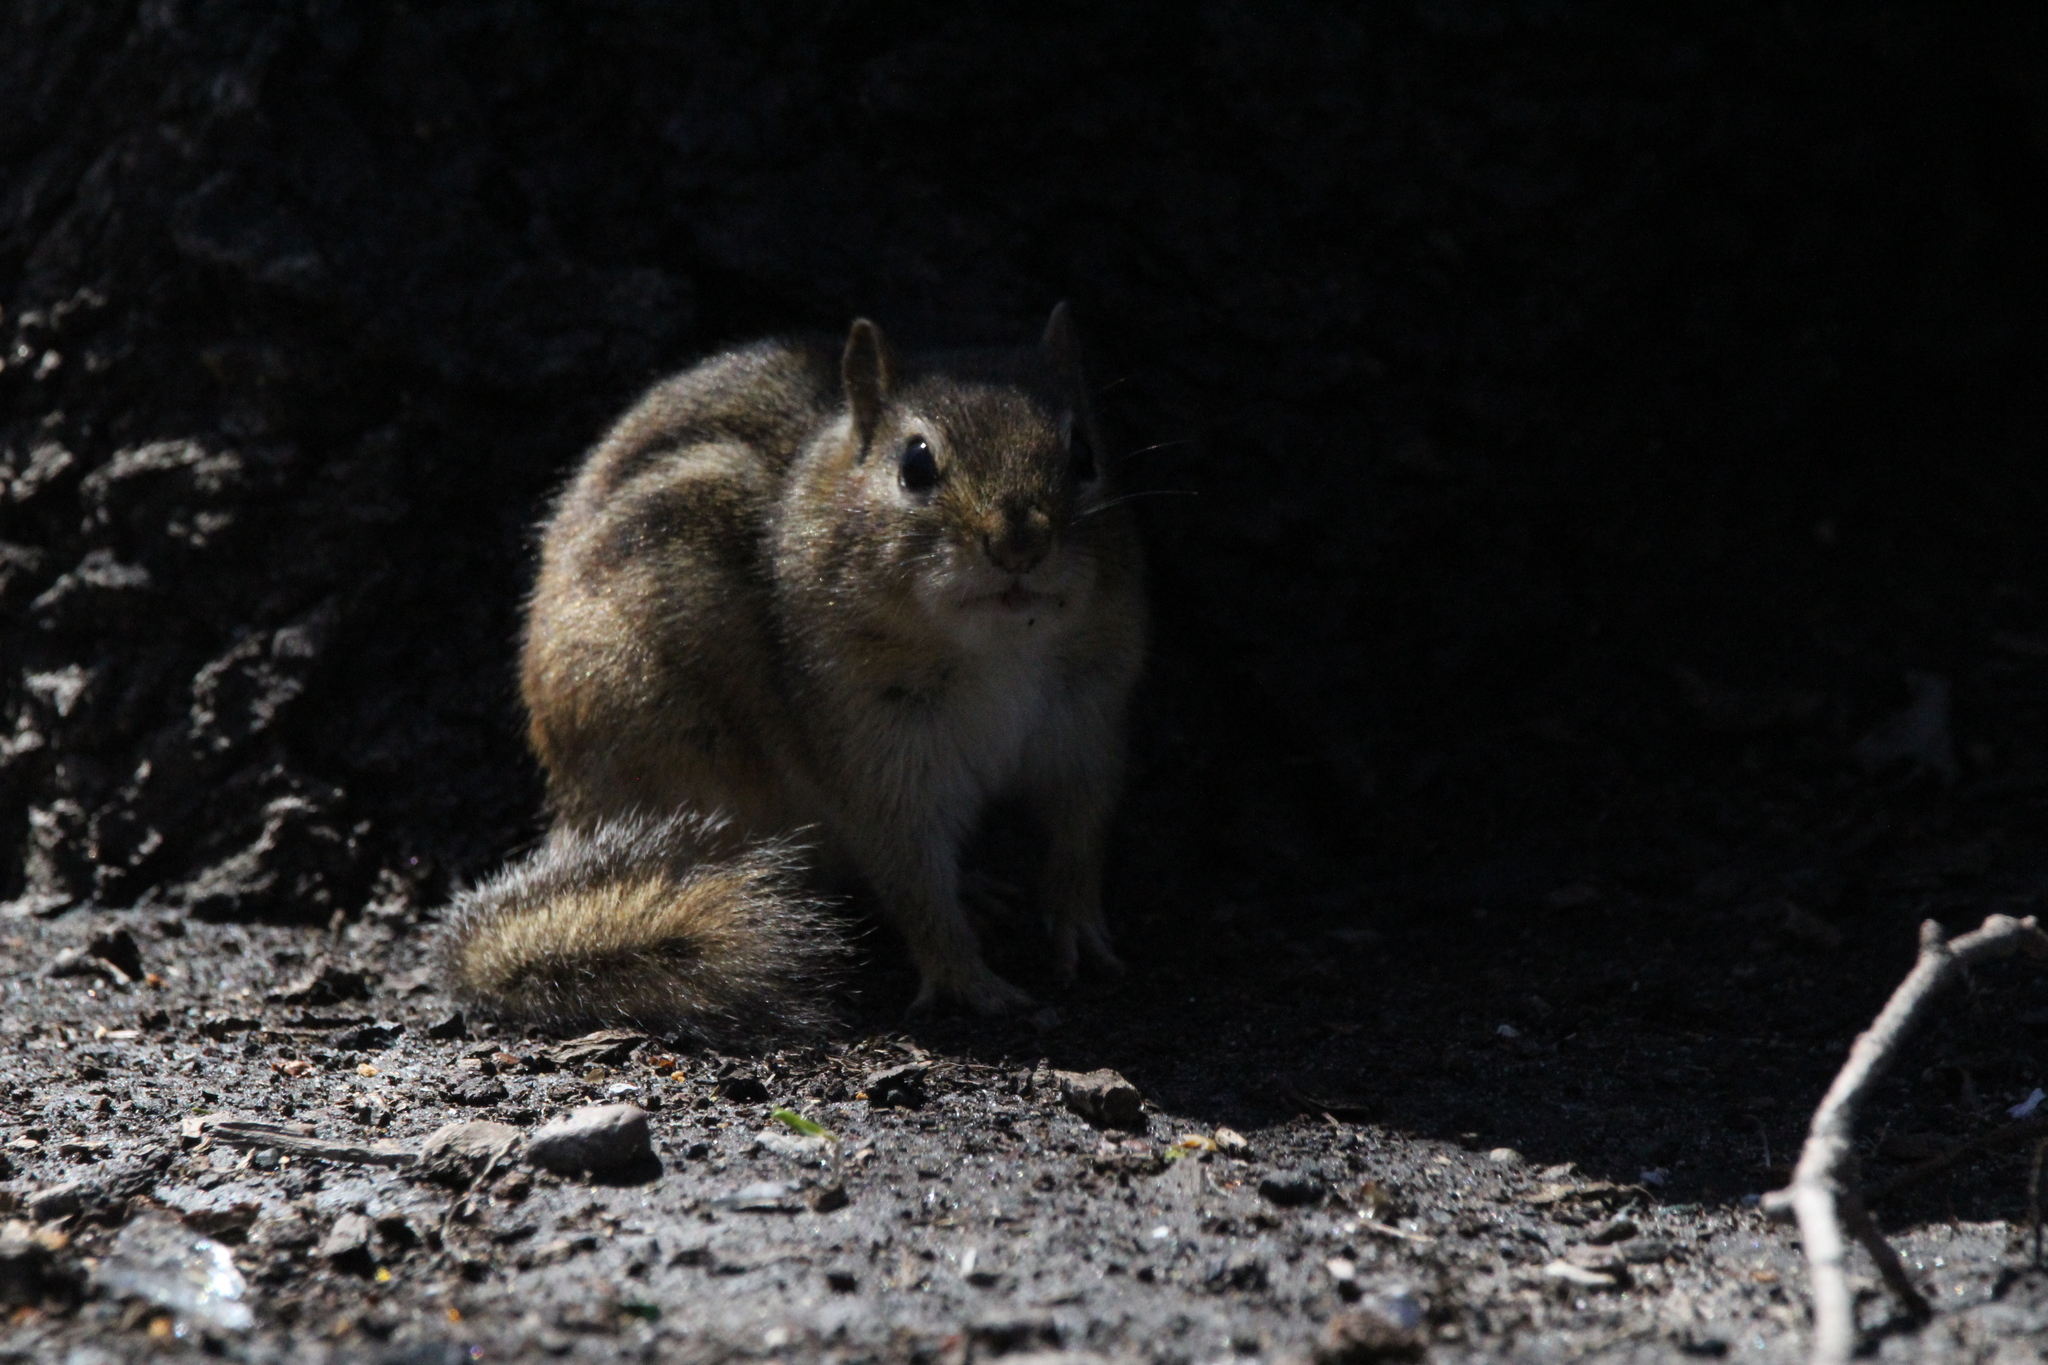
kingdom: Animalia
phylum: Chordata
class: Mammalia
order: Rodentia
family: Sciuridae
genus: Tamias
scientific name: Tamias striatus
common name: Eastern chipmunk
